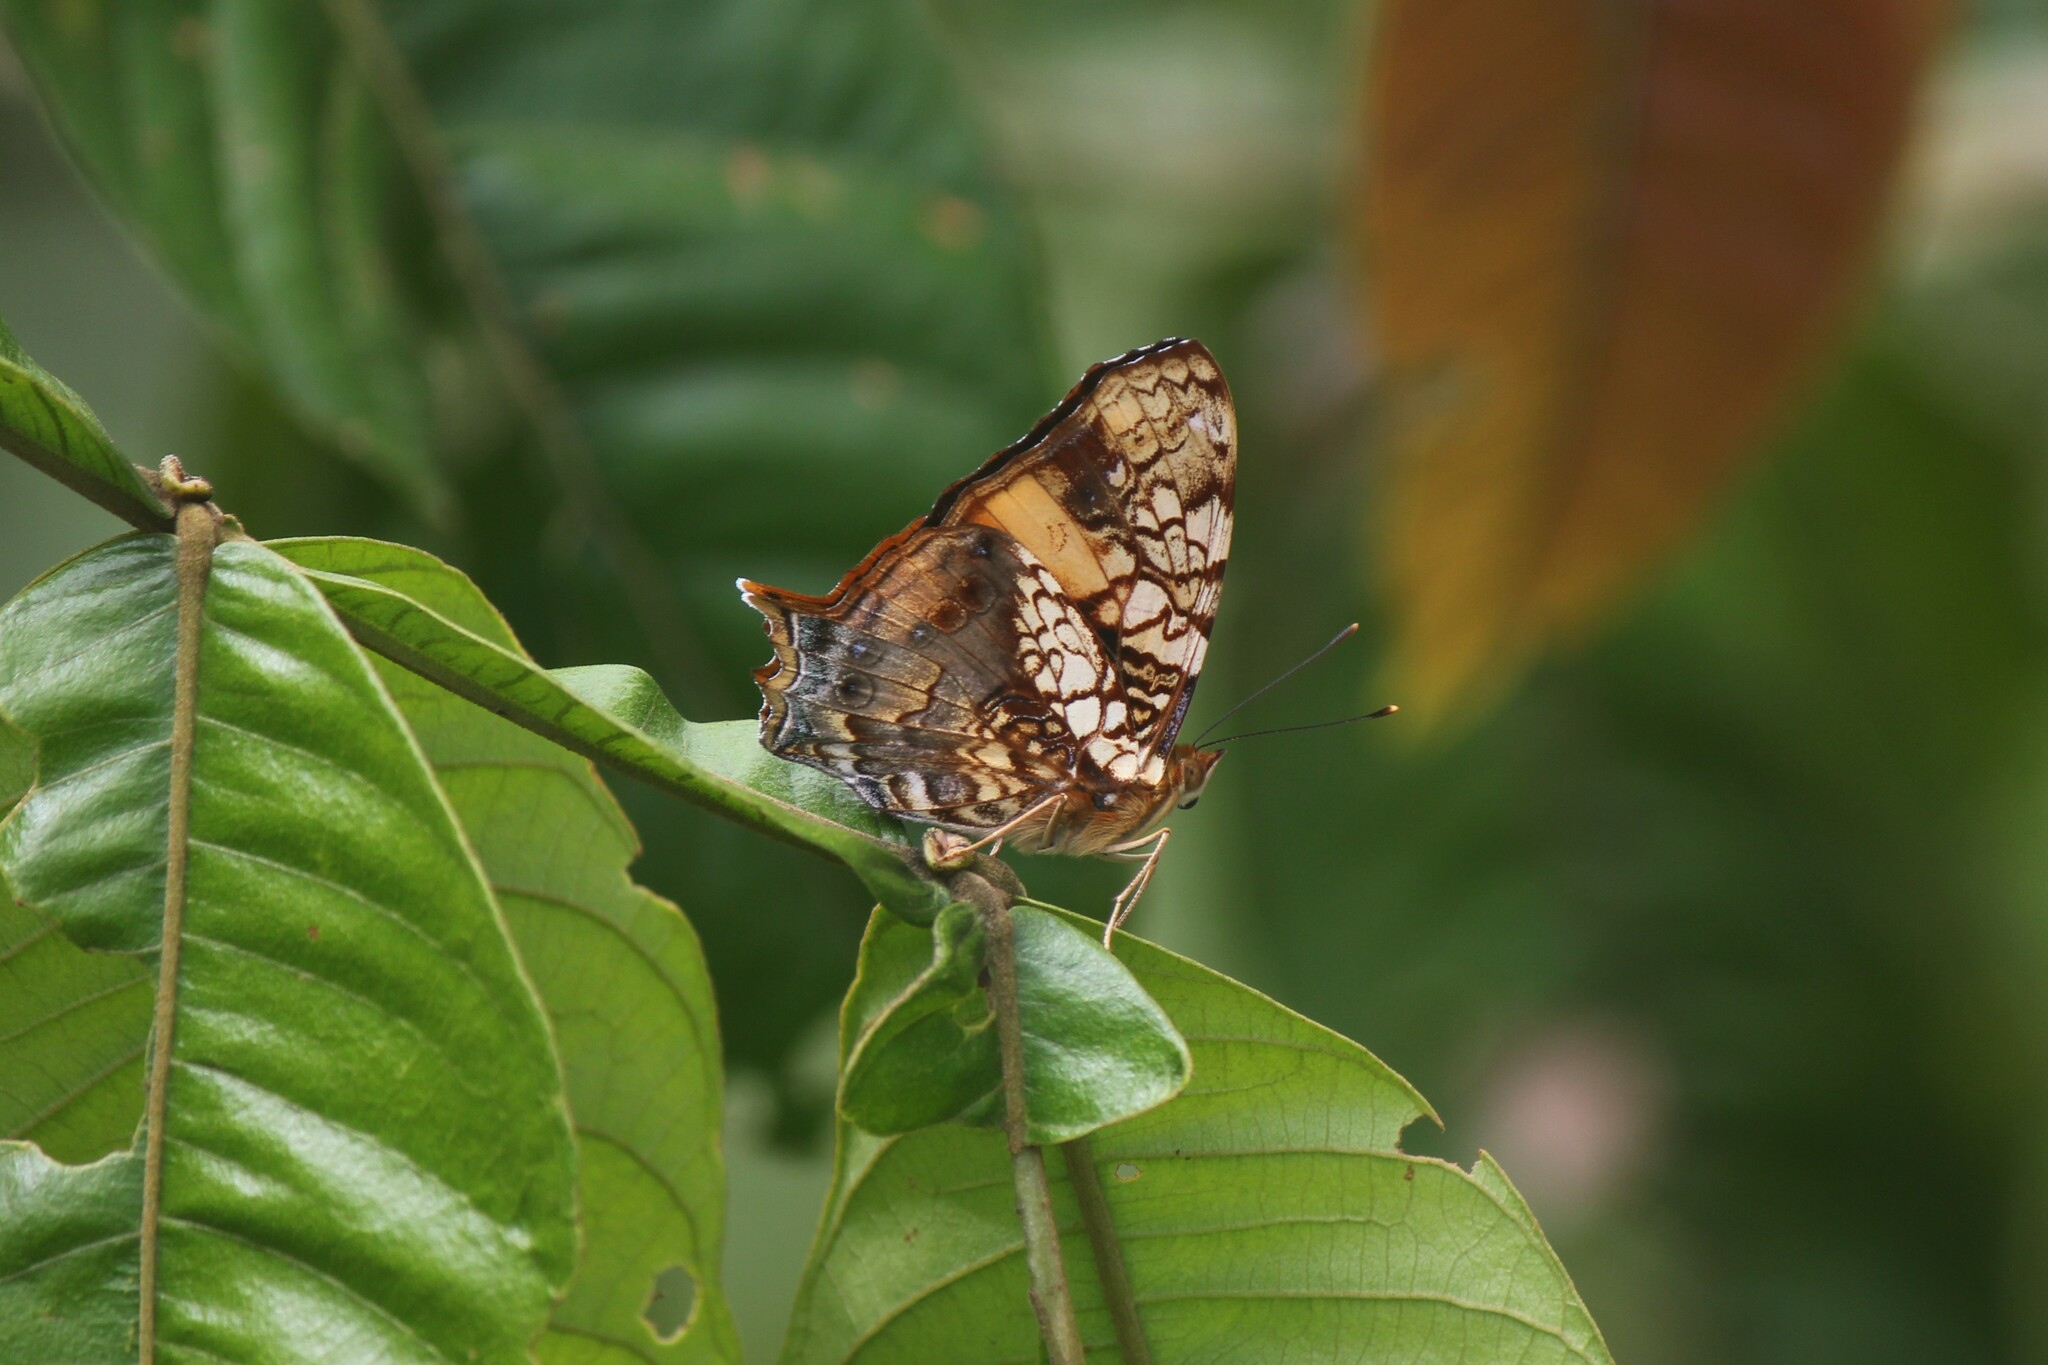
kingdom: Animalia
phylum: Arthropoda
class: Insecta
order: Lepidoptera
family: Nymphalidae
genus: Hypanartia
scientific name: Hypanartia lethe
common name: Orange mapwing
